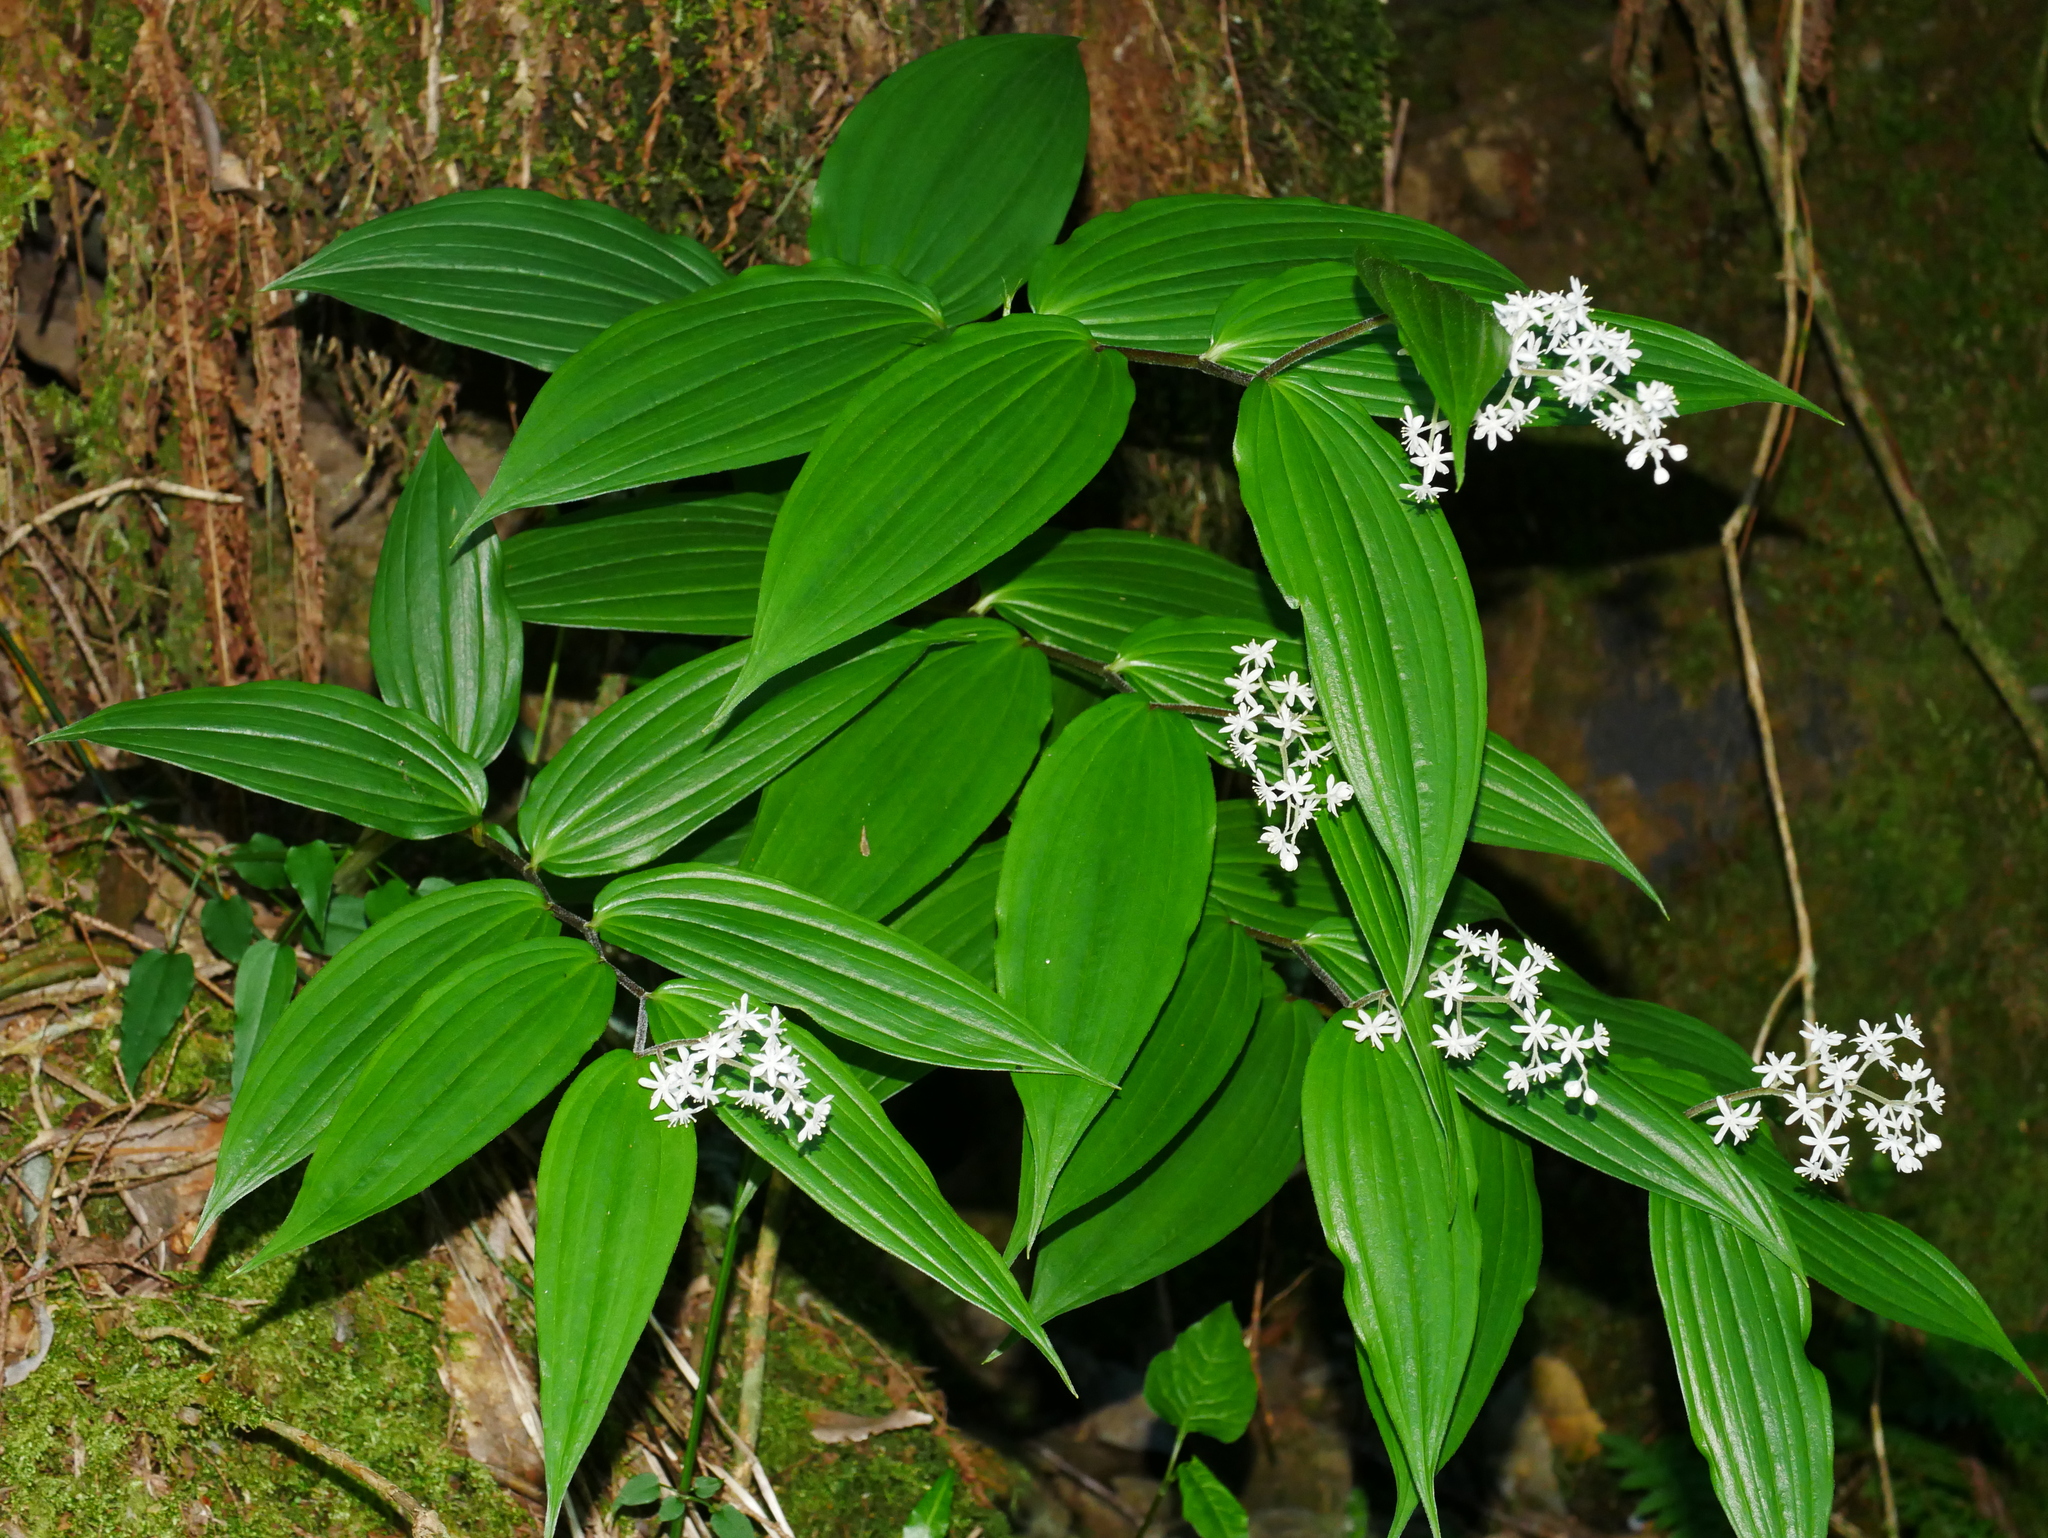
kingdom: Plantae
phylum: Tracheophyta
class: Liliopsida
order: Asparagales
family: Asparagaceae
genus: Maianthemum
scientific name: Maianthemum harae
